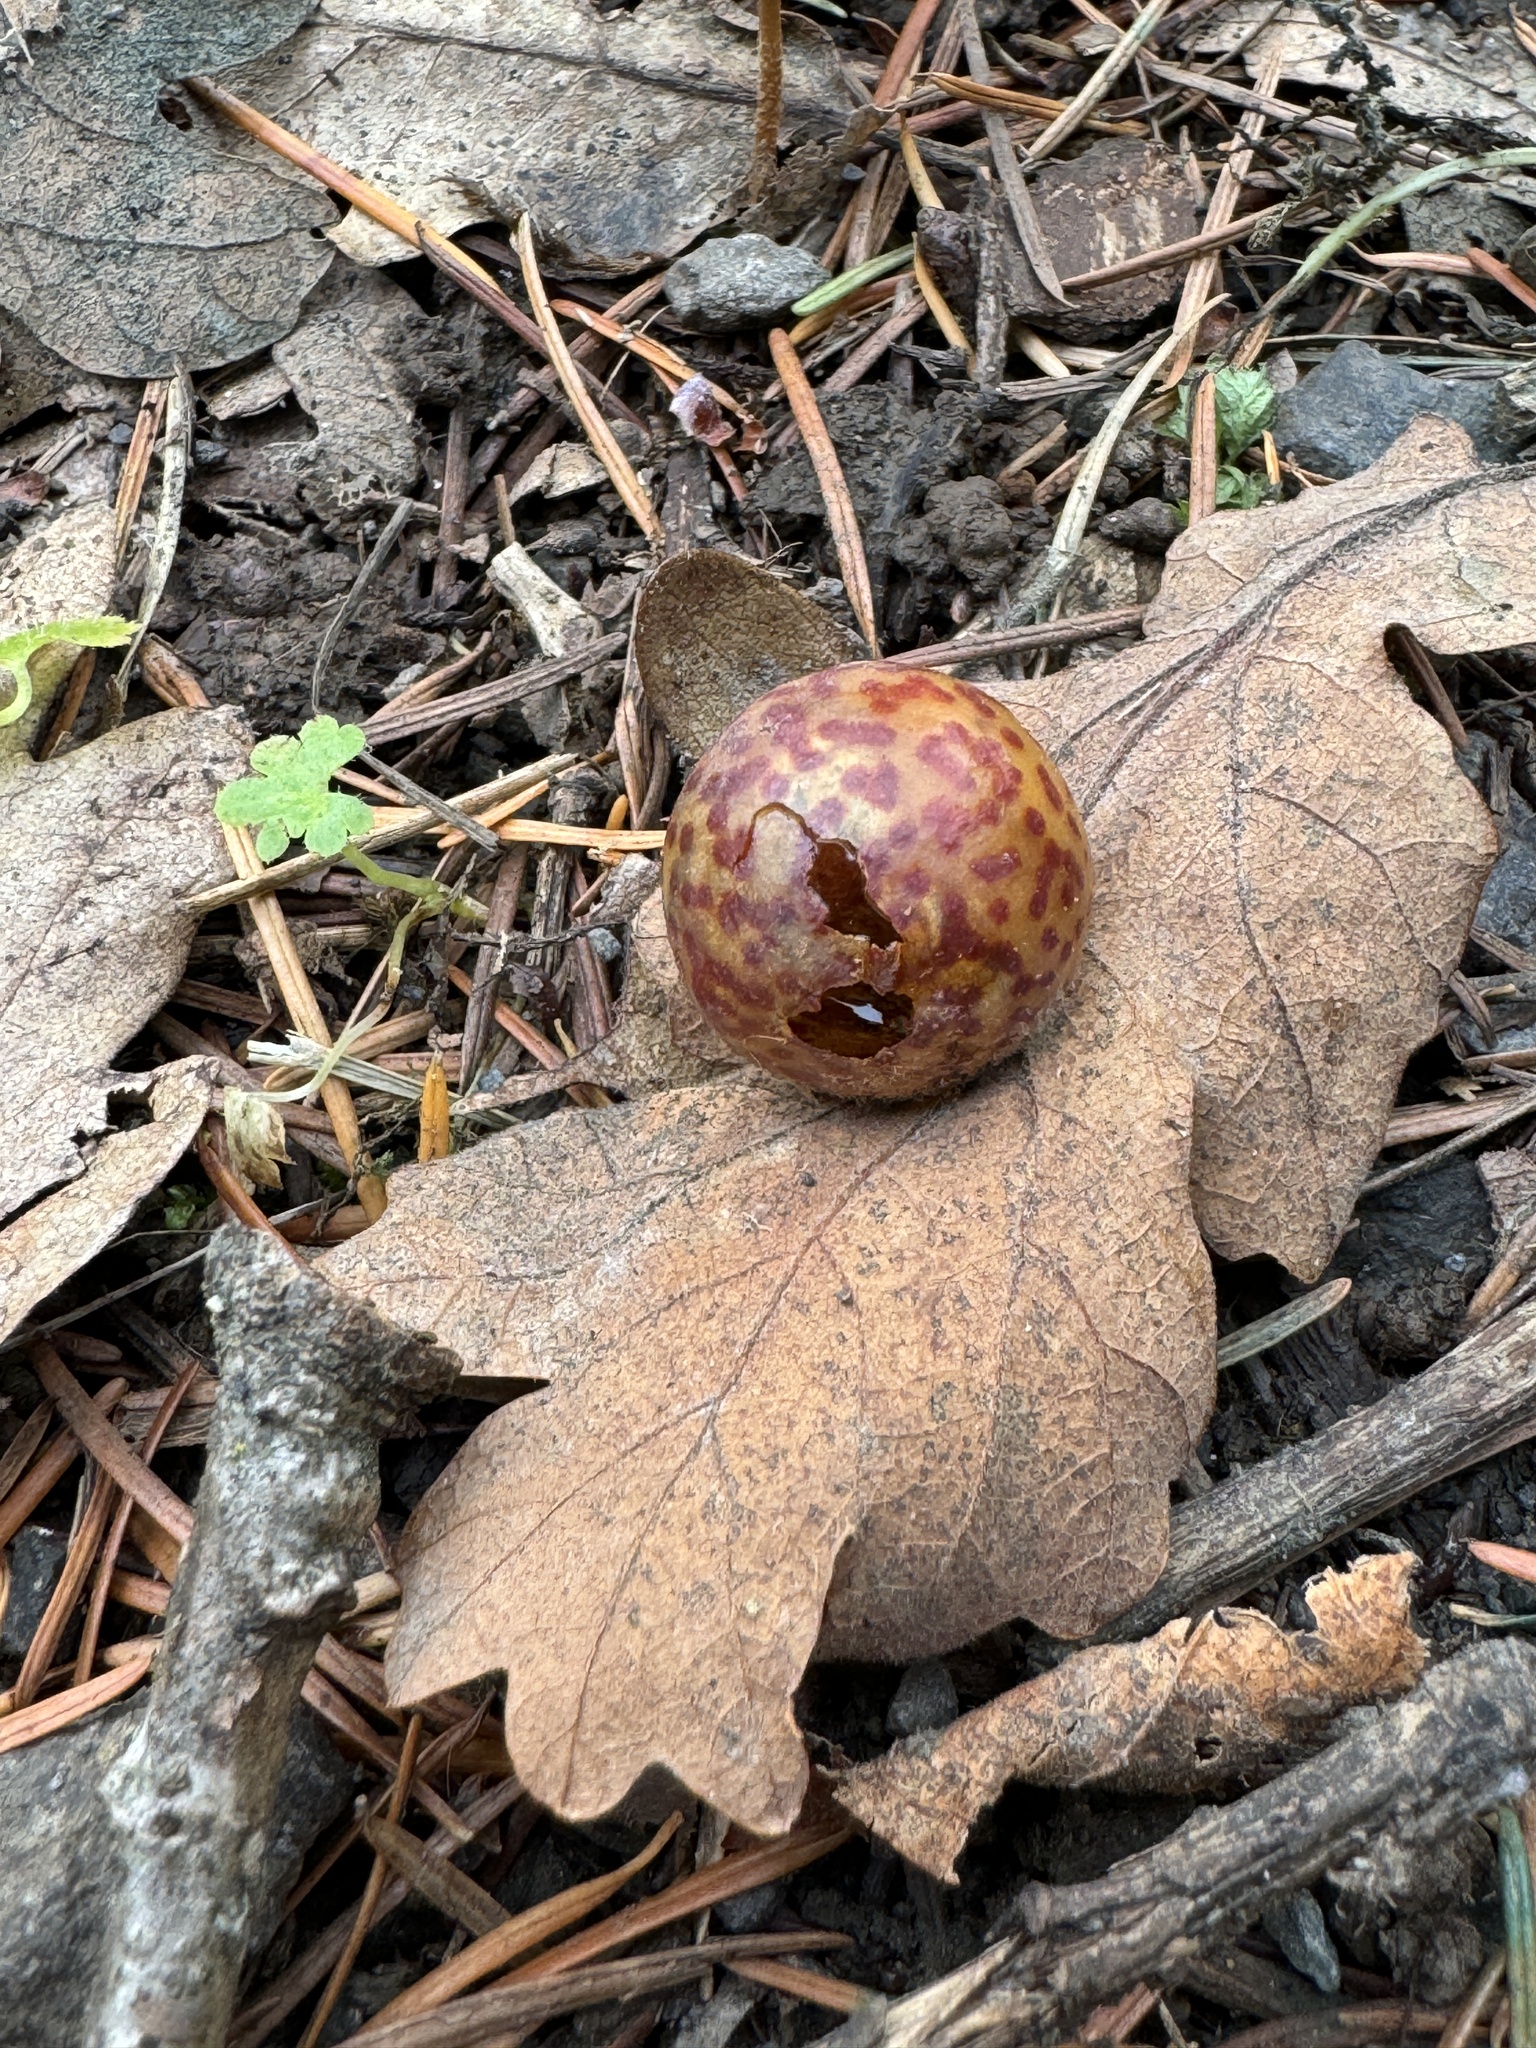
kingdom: Animalia
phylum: Arthropoda
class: Insecta
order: Hymenoptera
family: Cynipidae
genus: Cynips
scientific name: Cynips
